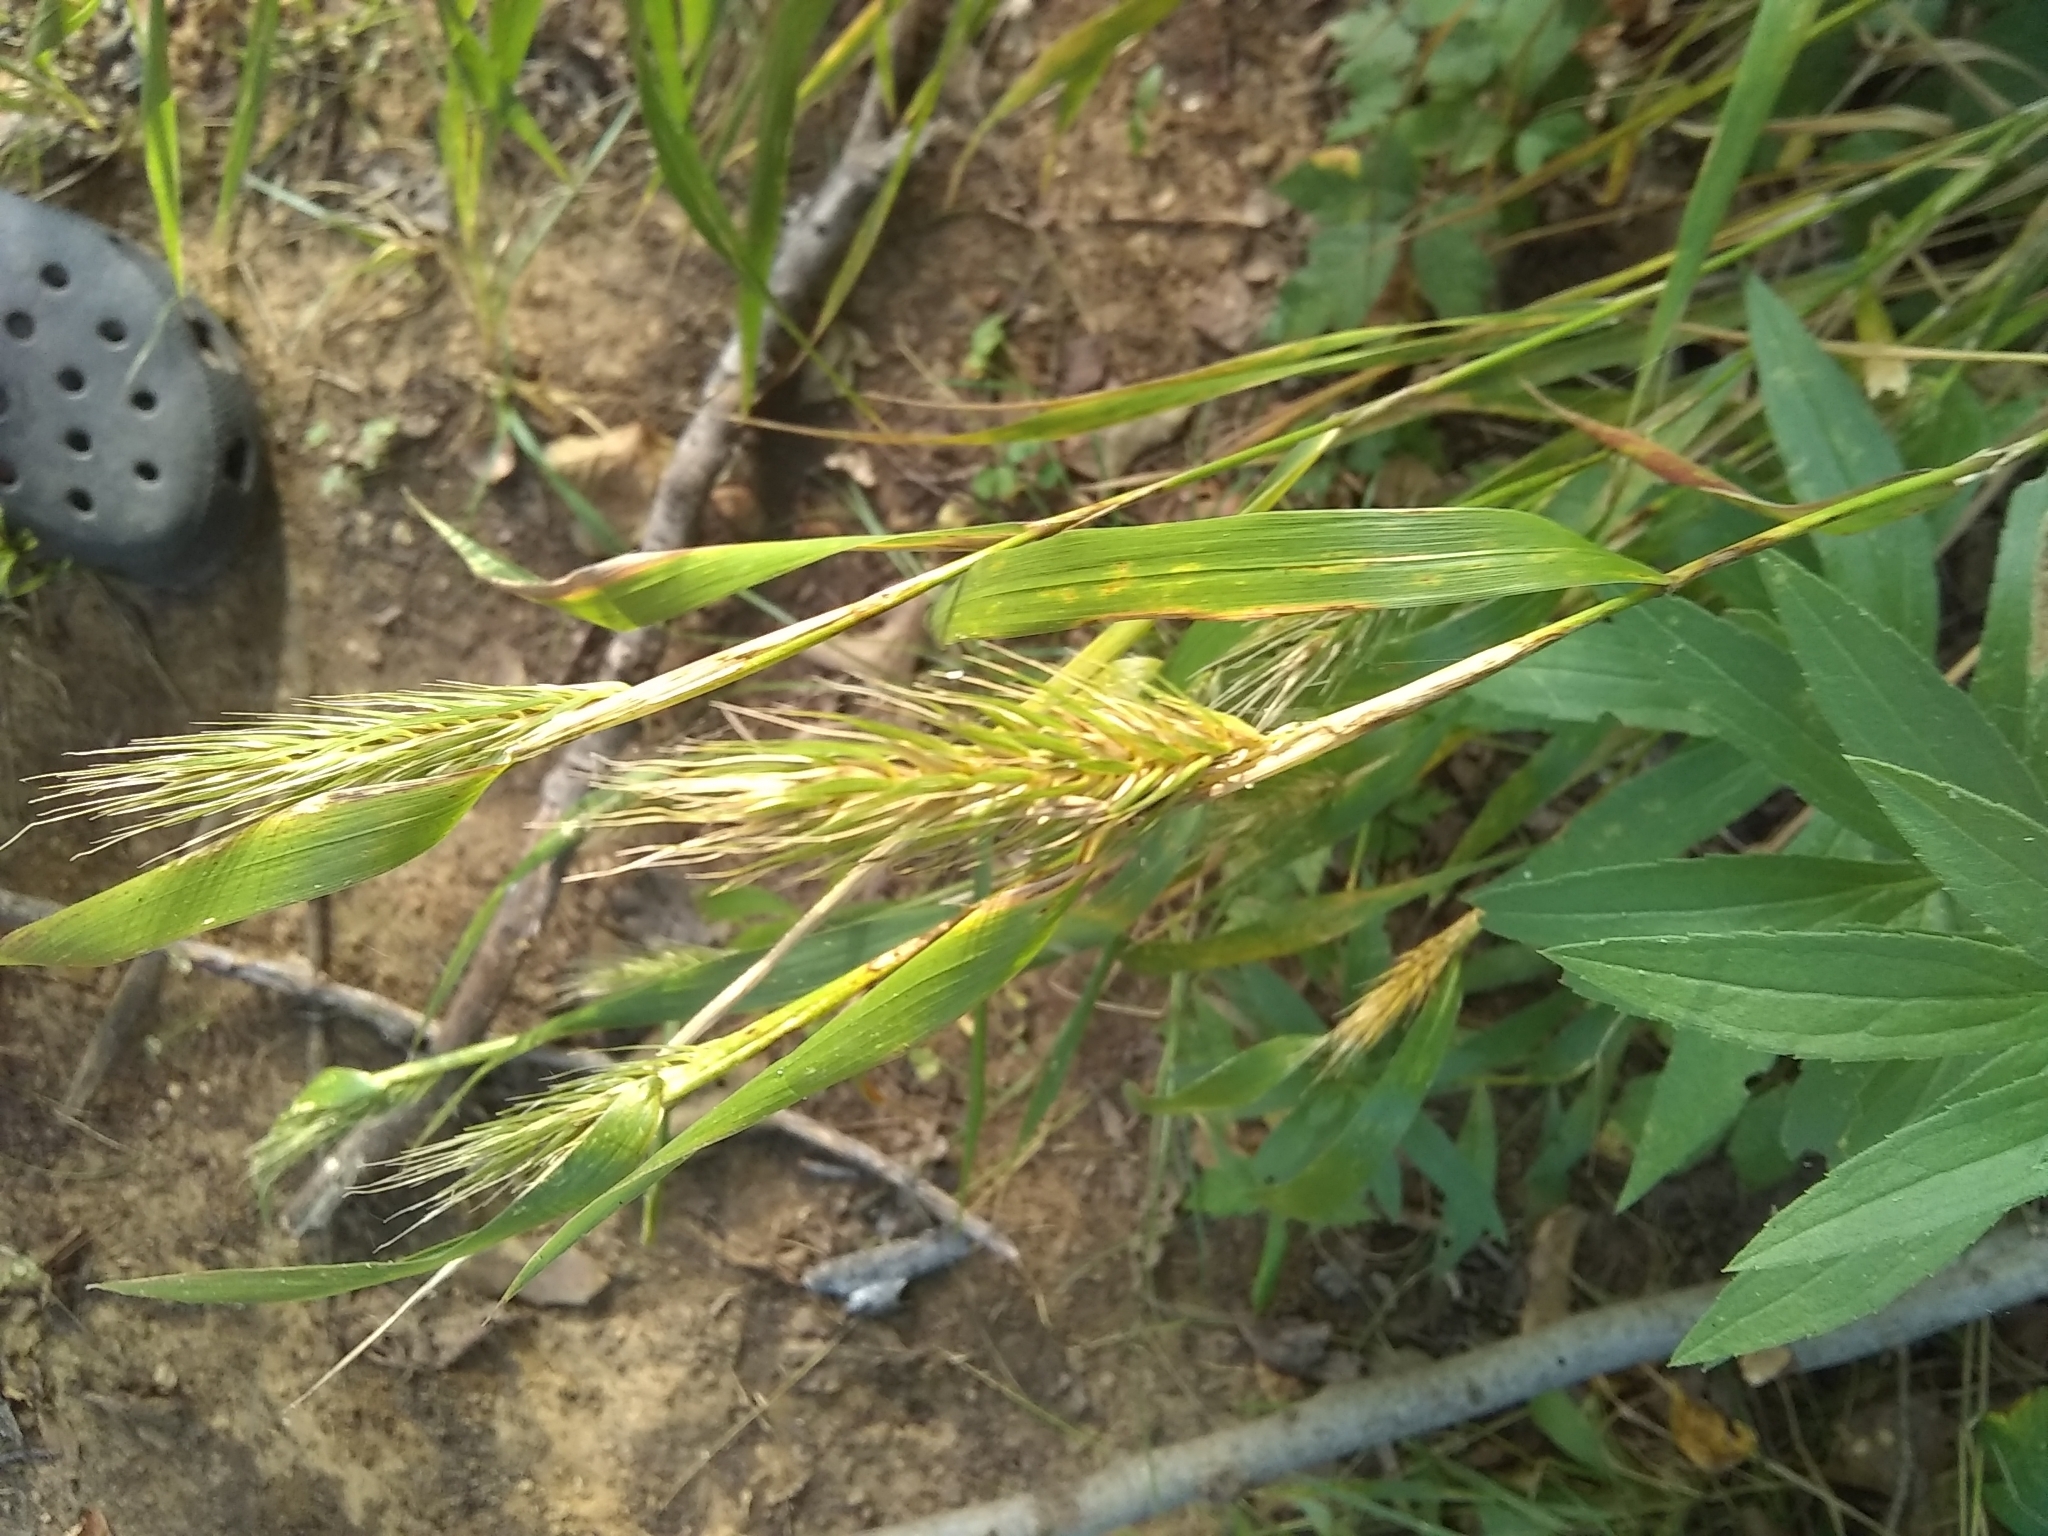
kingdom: Plantae
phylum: Tracheophyta
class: Liliopsida
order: Poales
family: Poaceae
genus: Elymus
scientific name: Elymus virginicus
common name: Common eastern wildrye
